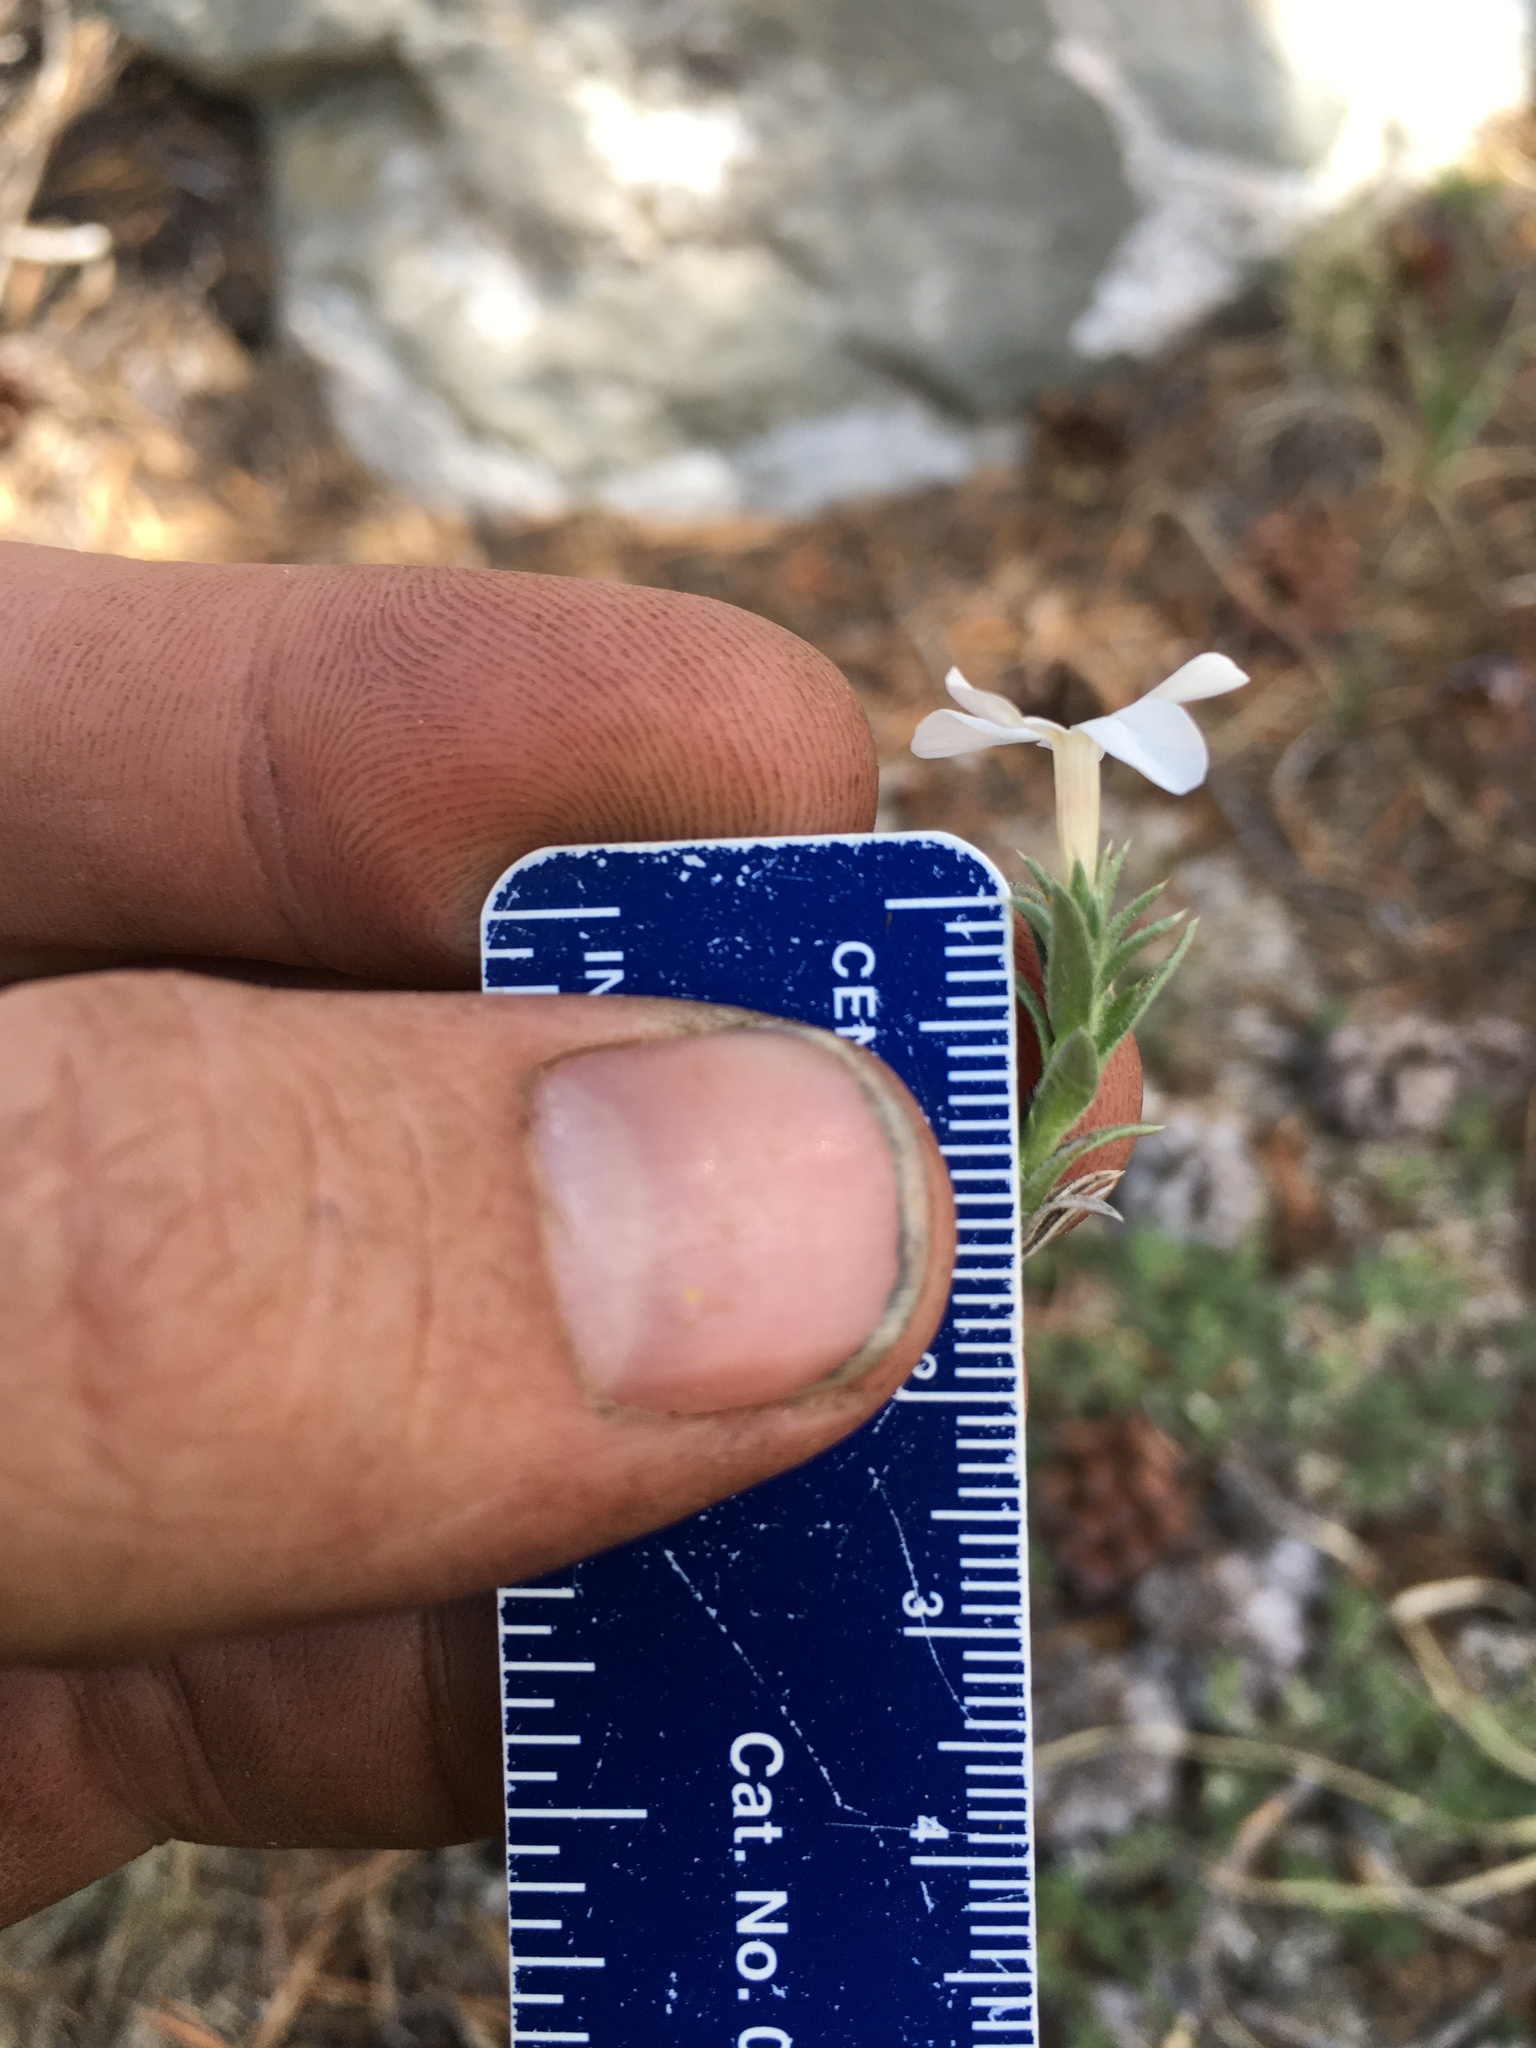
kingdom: Plantae
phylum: Tracheophyta
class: Magnoliopsida
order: Ericales
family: Polemoniaceae
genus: Phlox
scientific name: Phlox condensata
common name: Compact phlox
